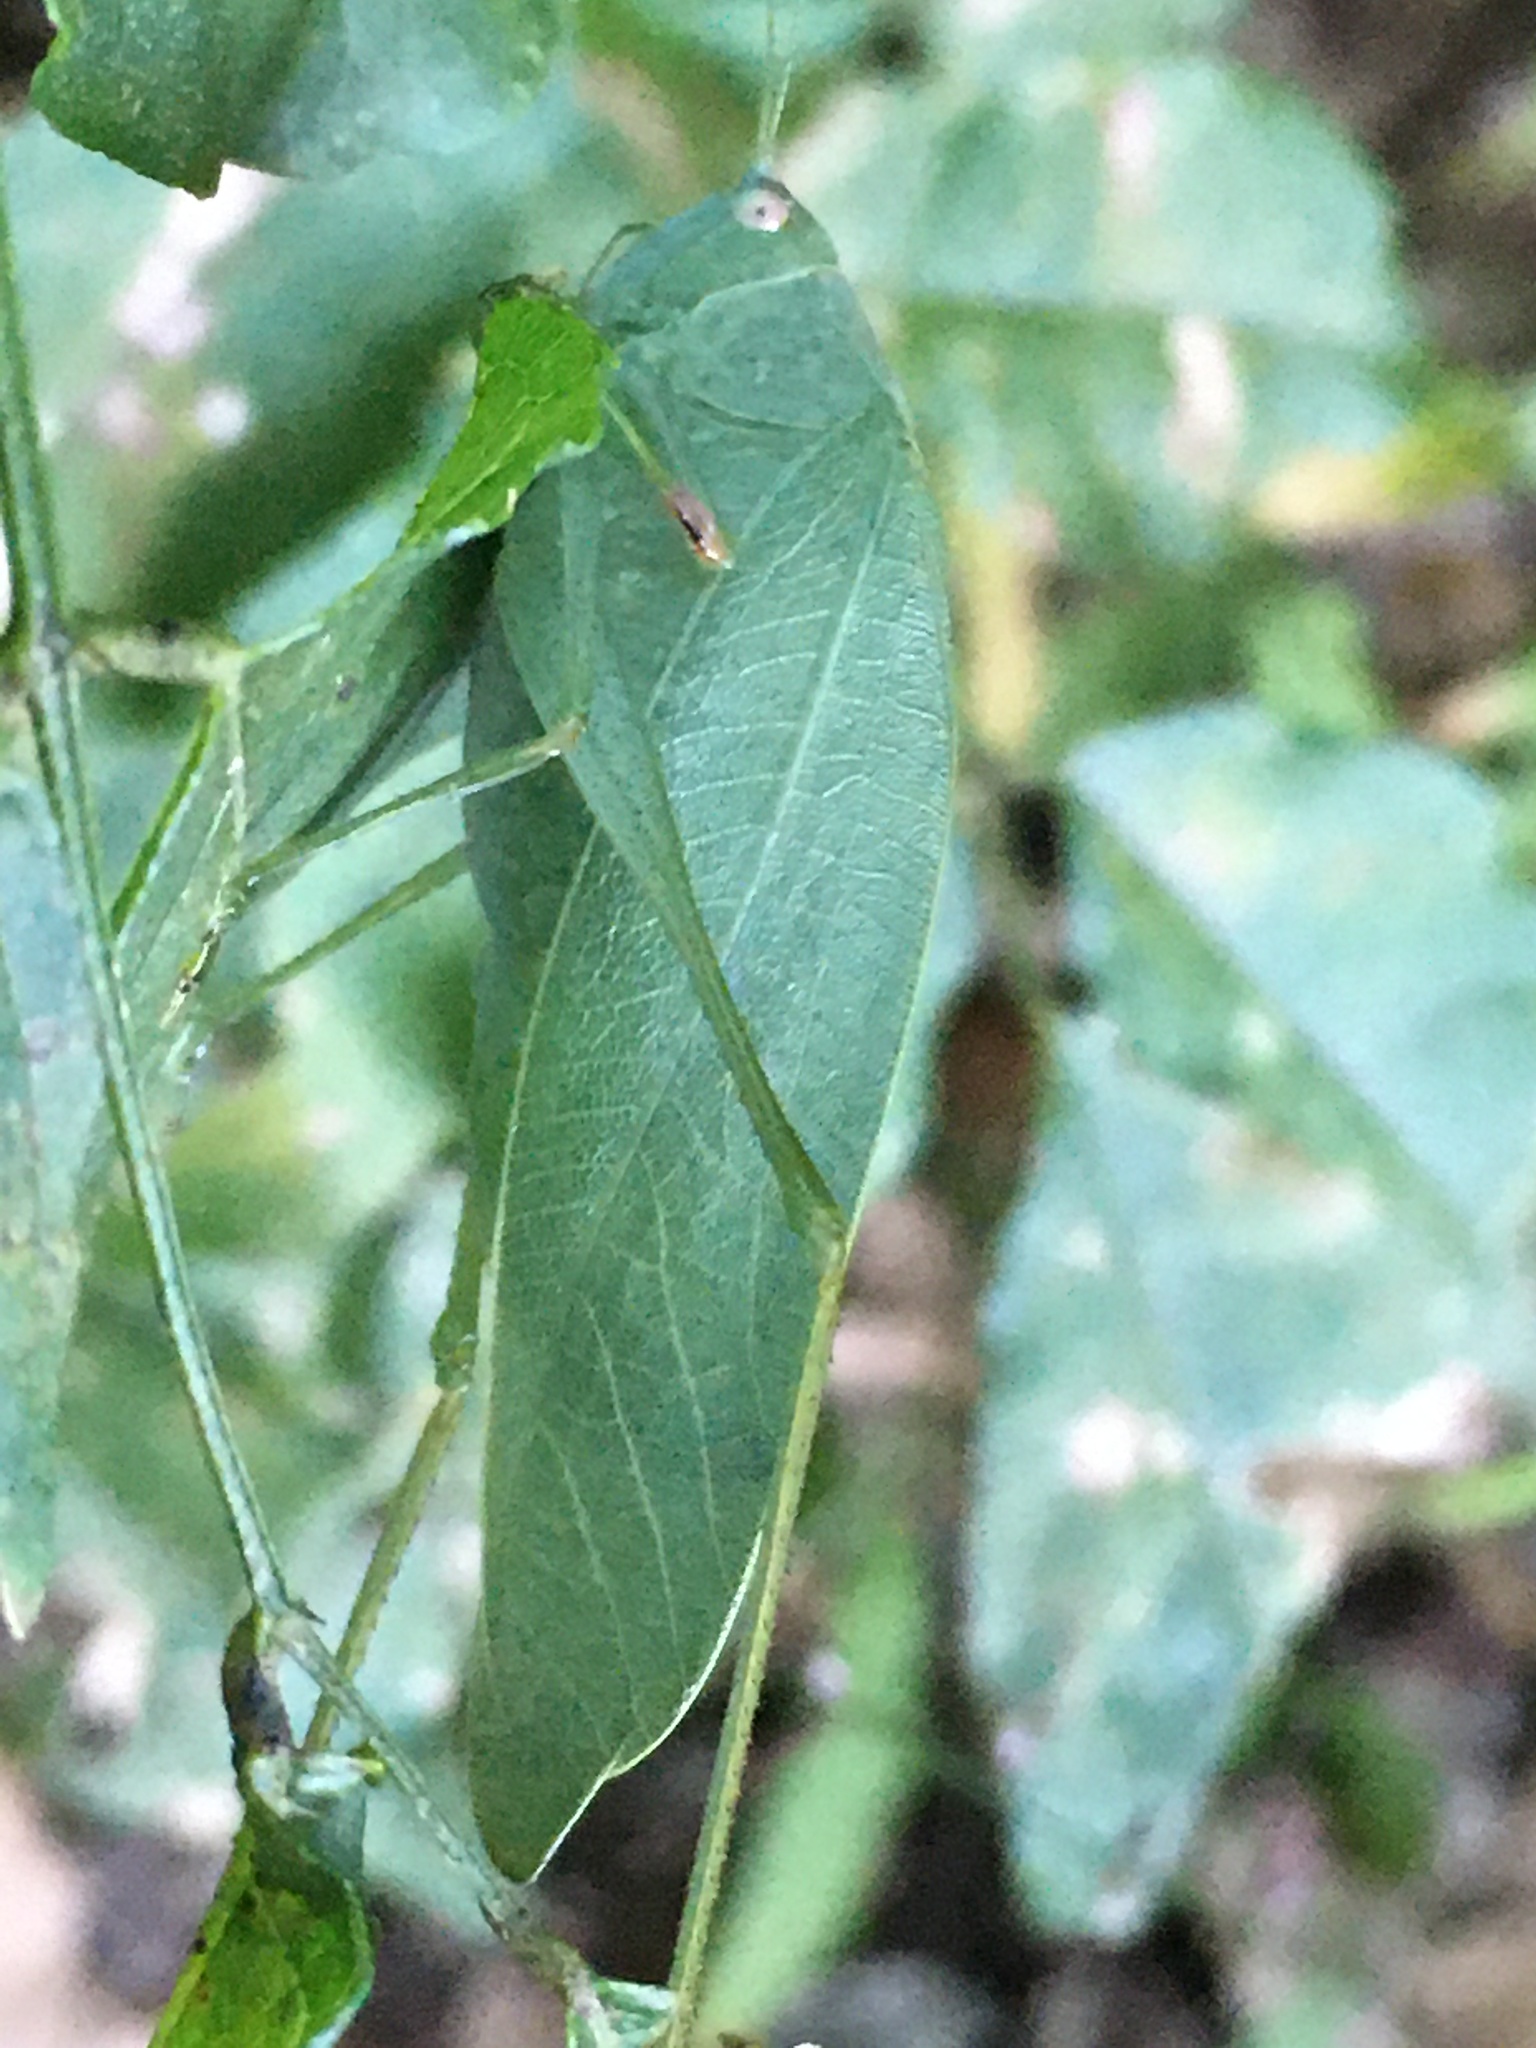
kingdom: Animalia
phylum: Arthropoda
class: Insecta
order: Orthoptera
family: Tettigoniidae
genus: Phaulula
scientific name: Phaulula macilenta
